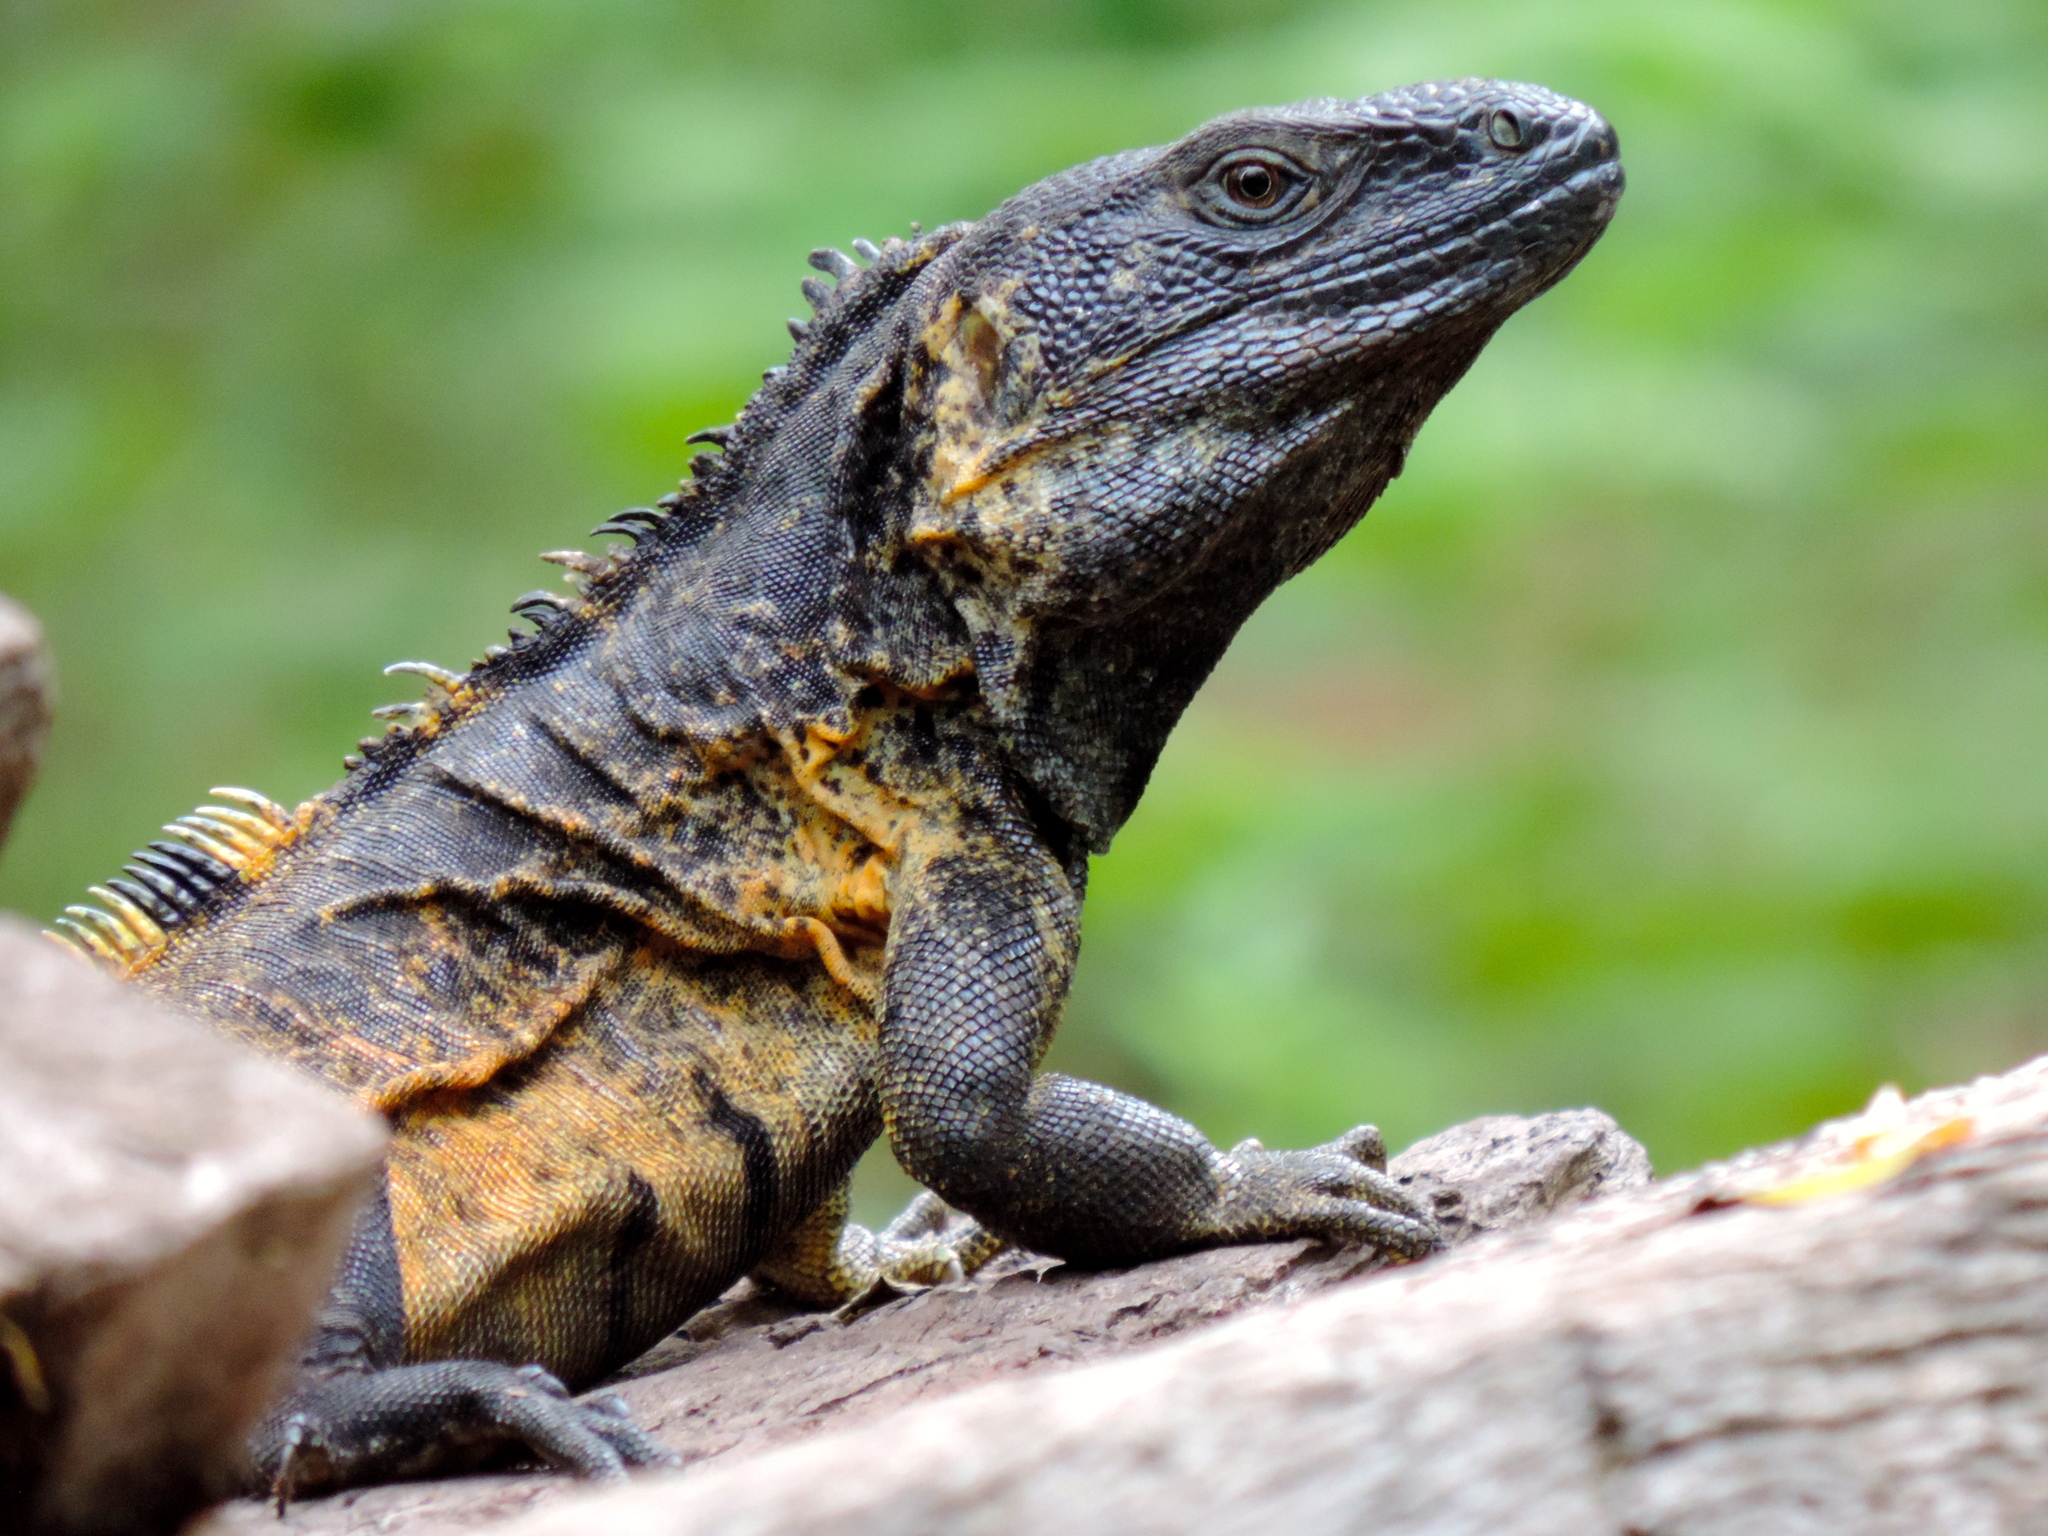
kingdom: Animalia
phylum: Chordata
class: Squamata
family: Iguanidae
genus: Ctenosaura
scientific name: Ctenosaura pectinata
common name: Guerreran spiny-tailed iguana
